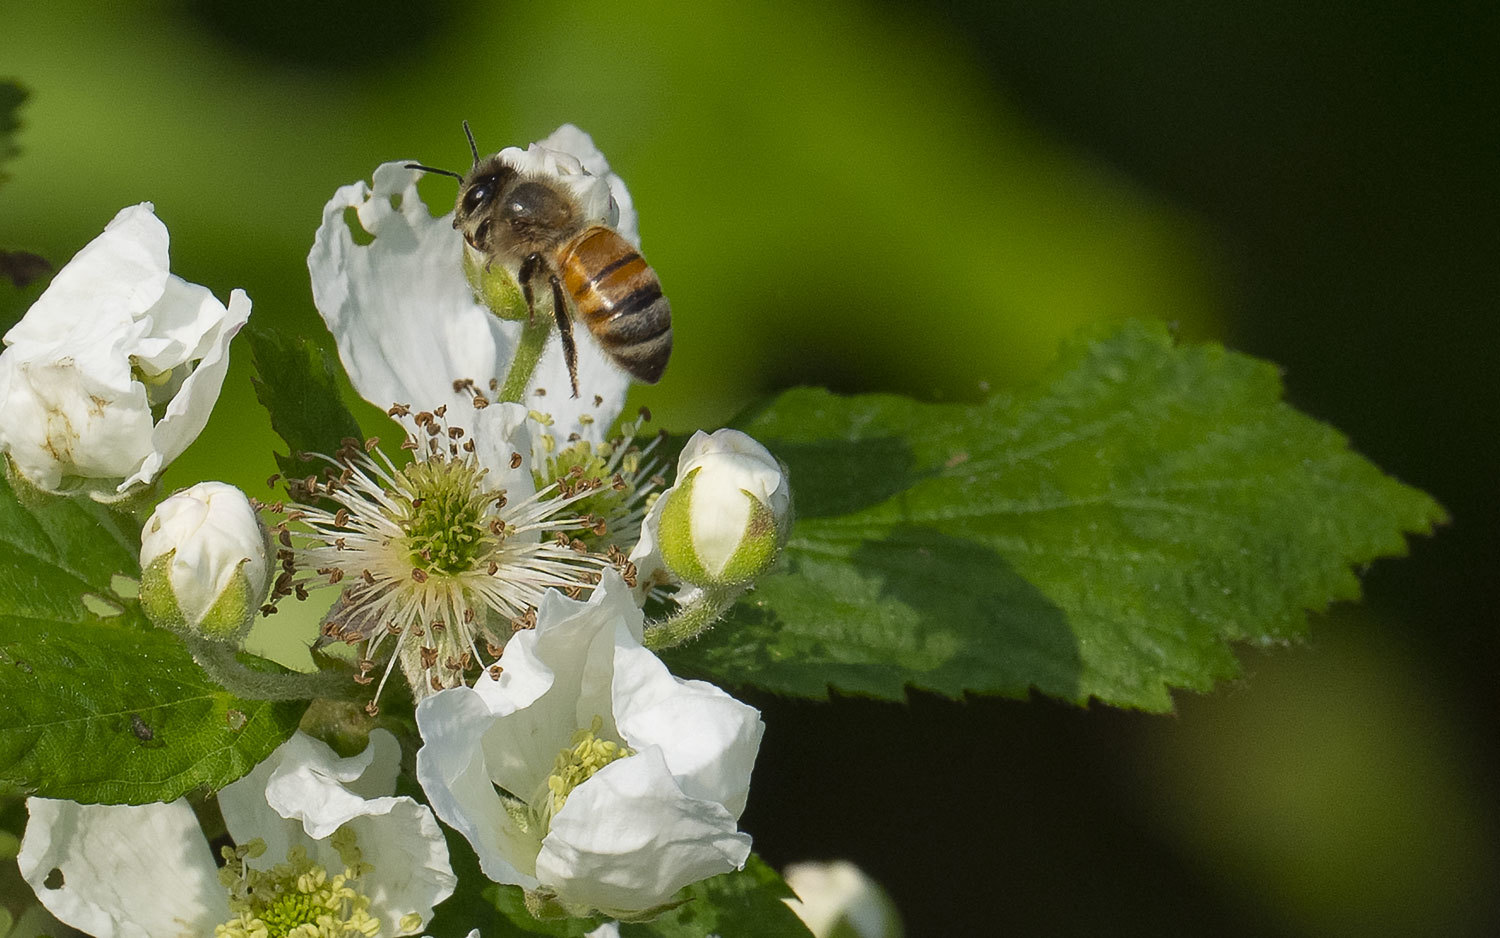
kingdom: Animalia
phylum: Arthropoda
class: Insecta
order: Hymenoptera
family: Apidae
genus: Apis
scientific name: Apis mellifera
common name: Honey bee
